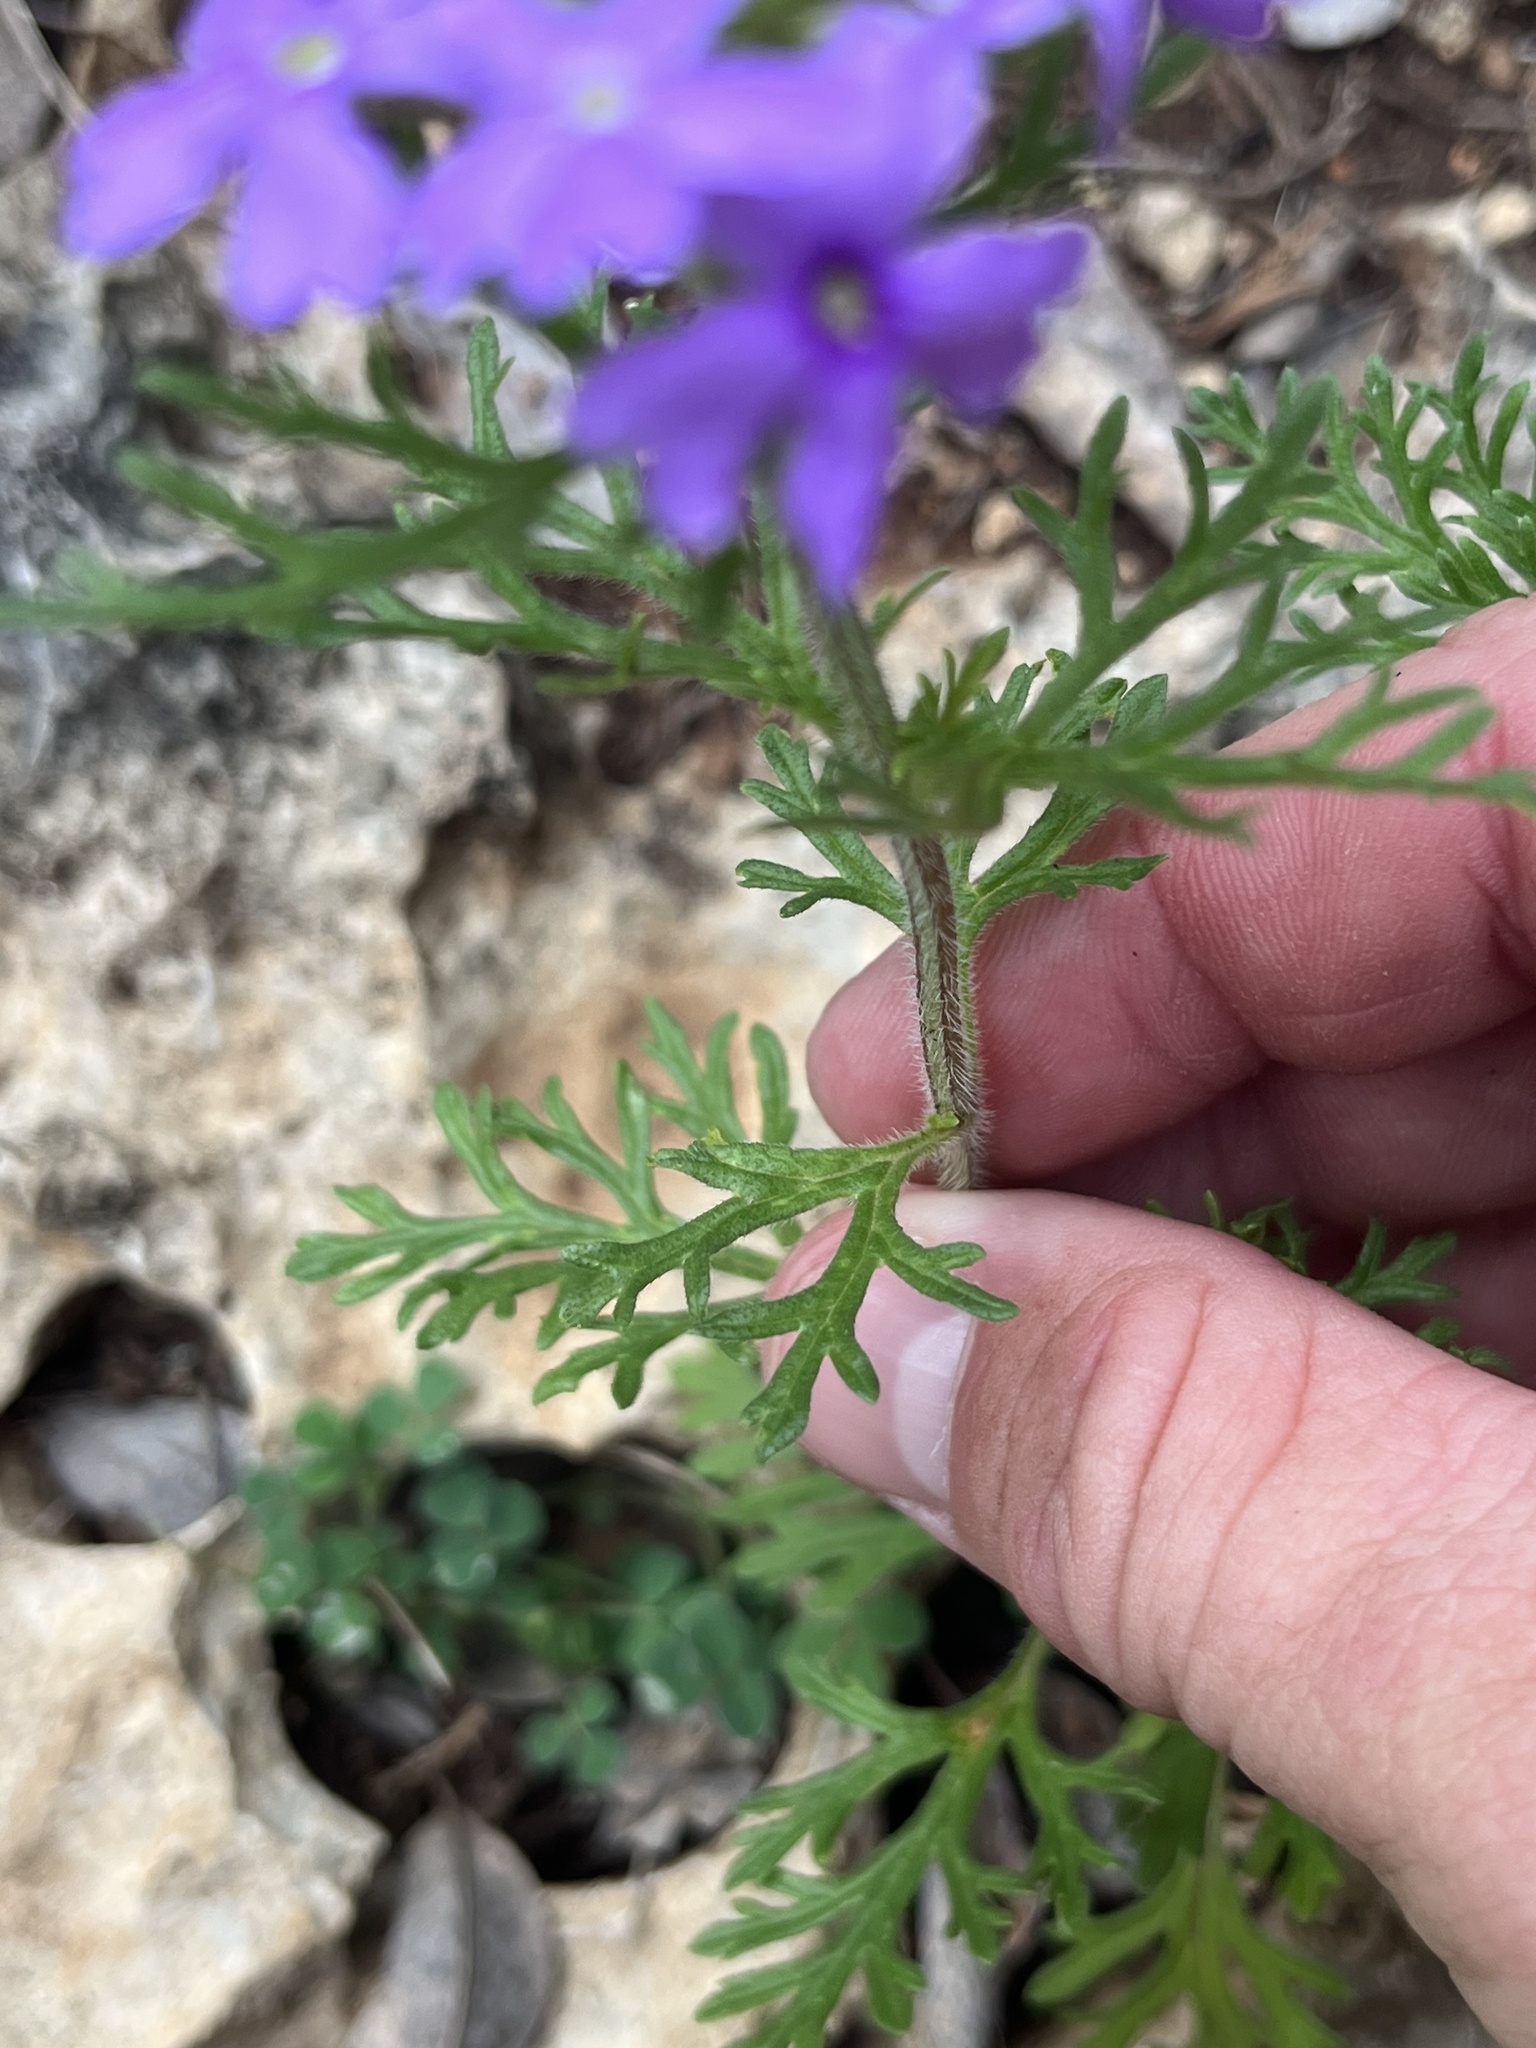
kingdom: Plantae
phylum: Tracheophyta
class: Magnoliopsida
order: Lamiales
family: Verbenaceae
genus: Verbena
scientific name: Verbena bipinnatifida
